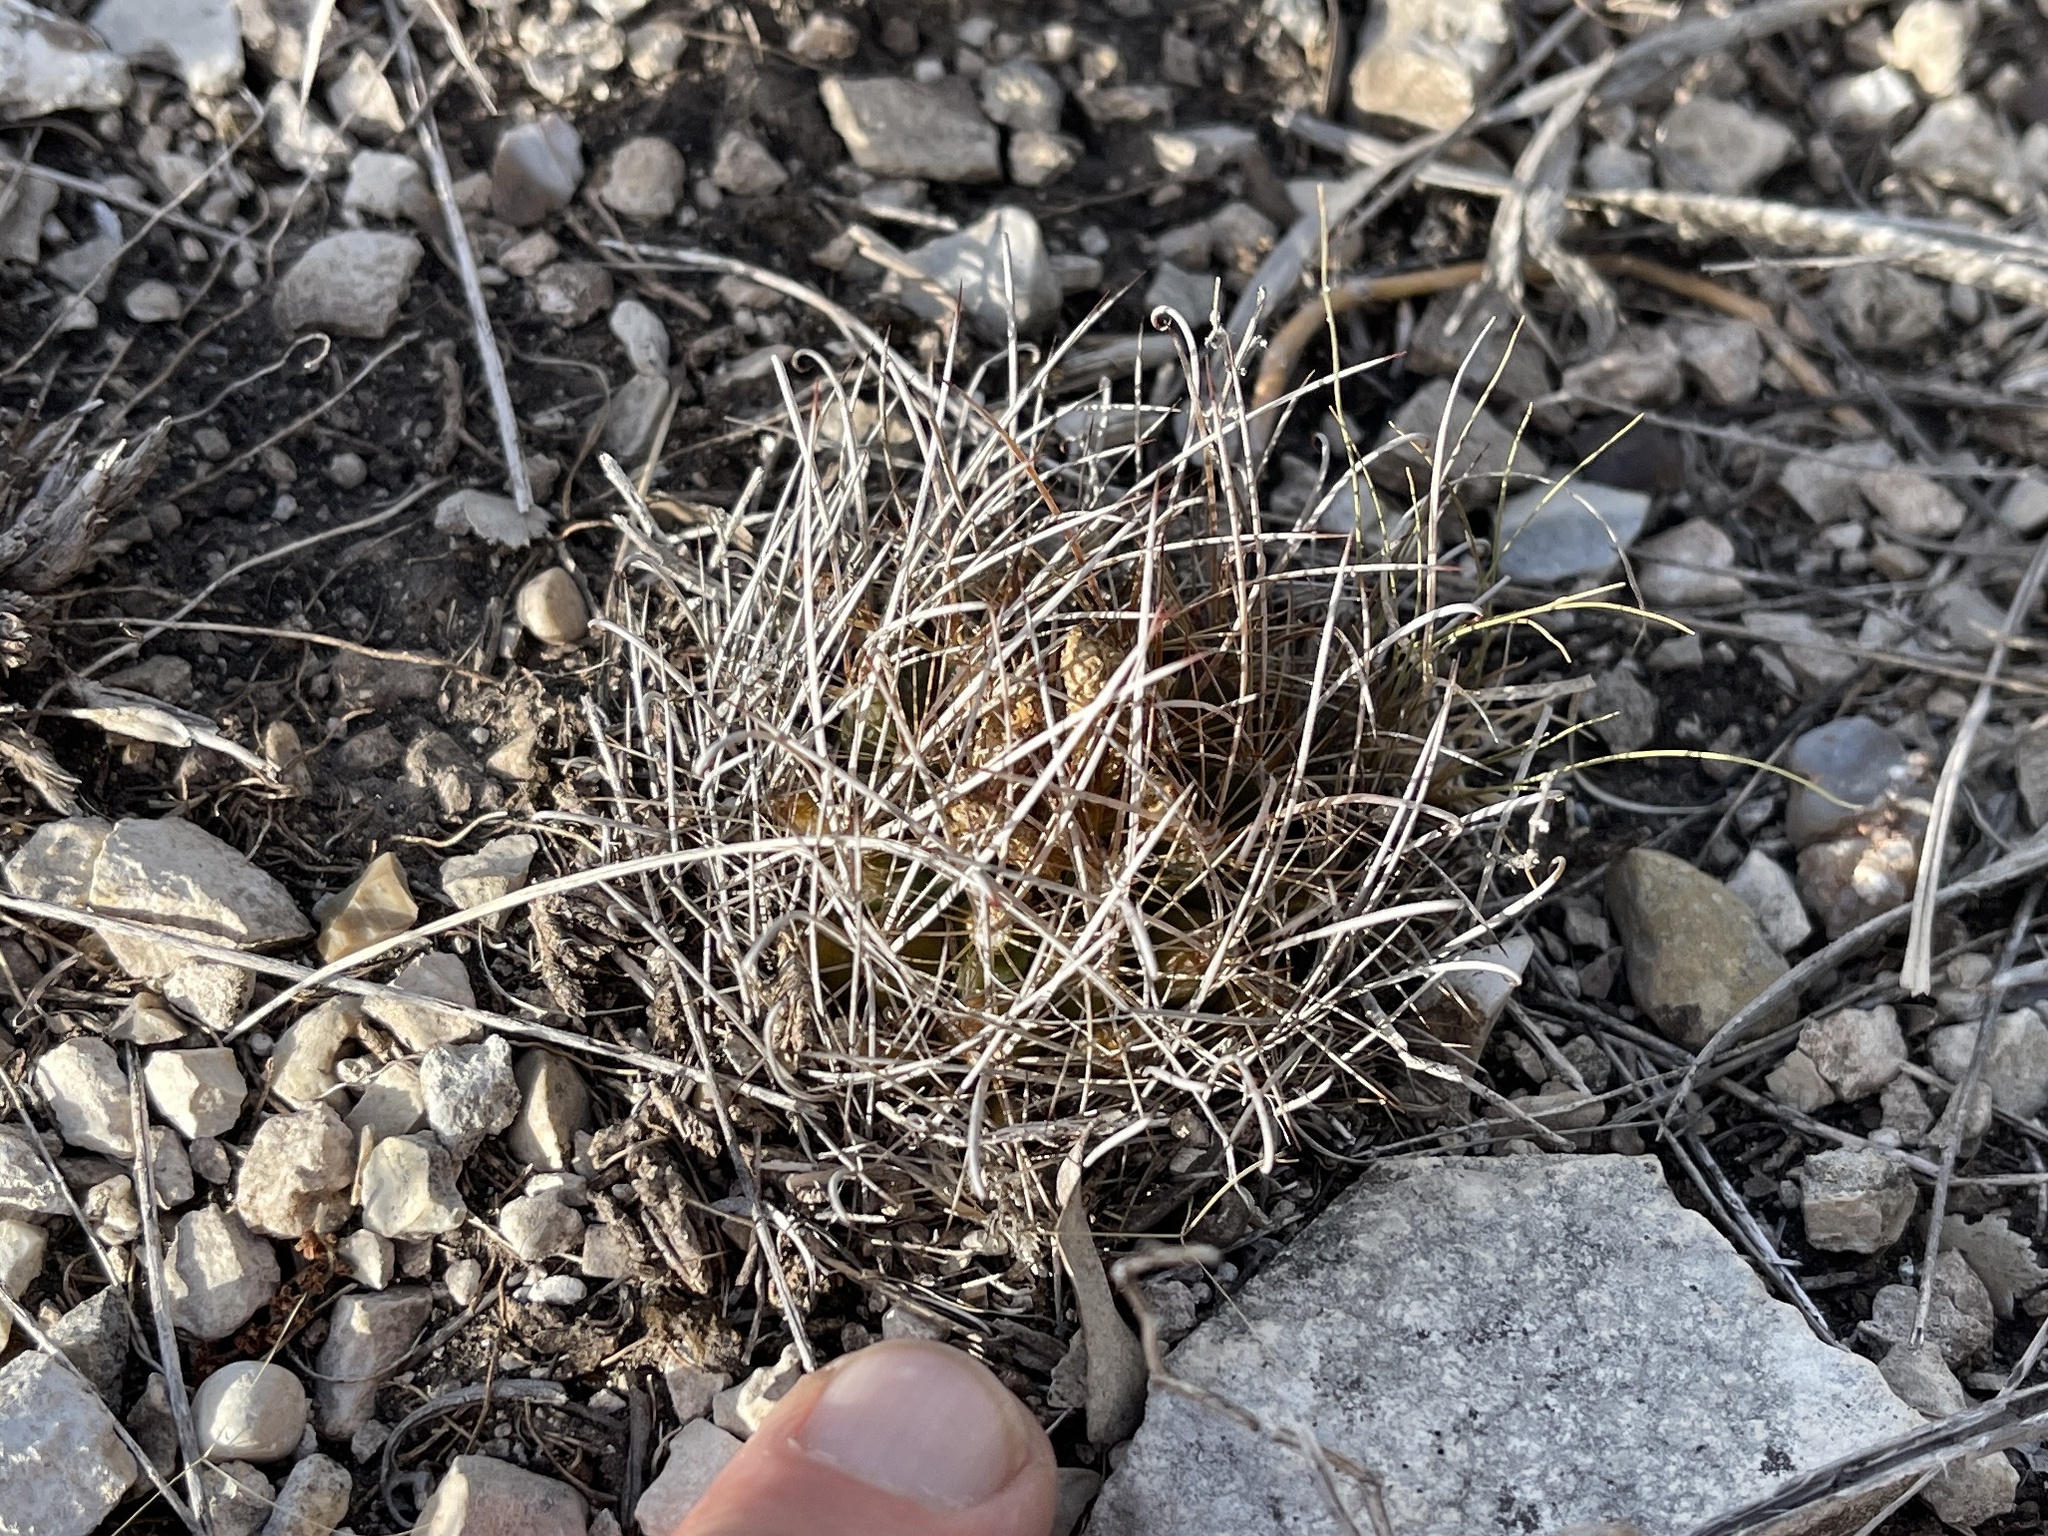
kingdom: Plantae
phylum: Tracheophyta
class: Magnoliopsida
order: Caryophyllales
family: Cactaceae
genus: Sclerocactus
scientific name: Sclerocactus brevihamatus
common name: Engelmann's fishhook cactus
